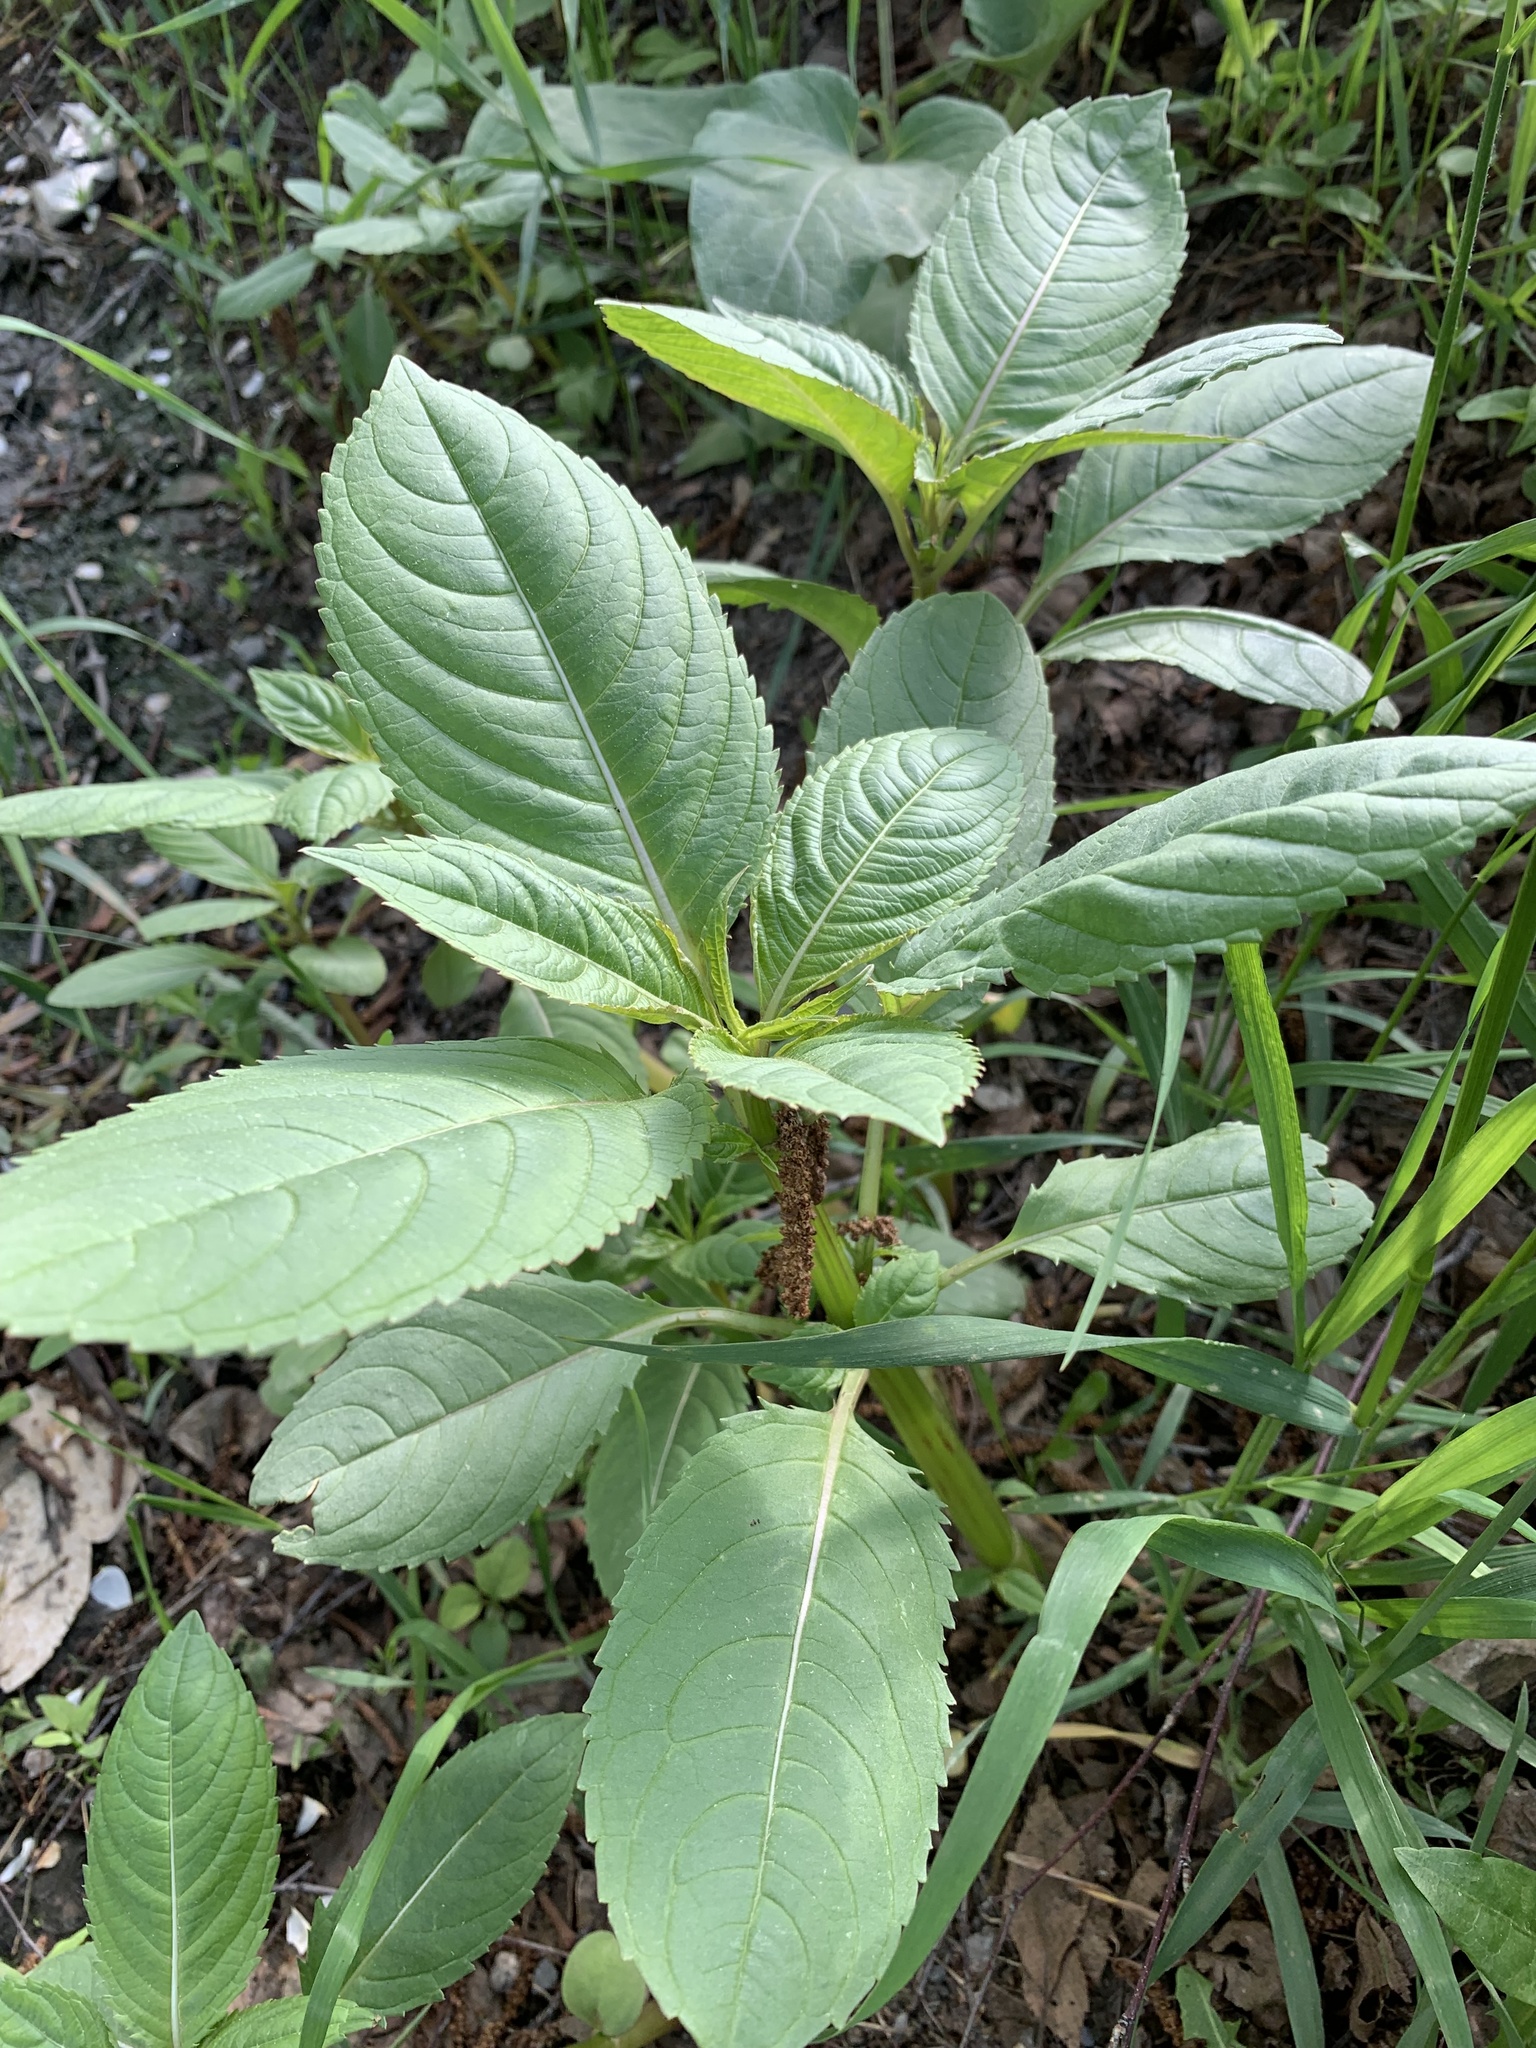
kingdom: Plantae
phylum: Tracheophyta
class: Magnoliopsida
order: Ericales
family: Balsaminaceae
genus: Impatiens
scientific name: Impatiens glandulifera
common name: Himalayan balsam
